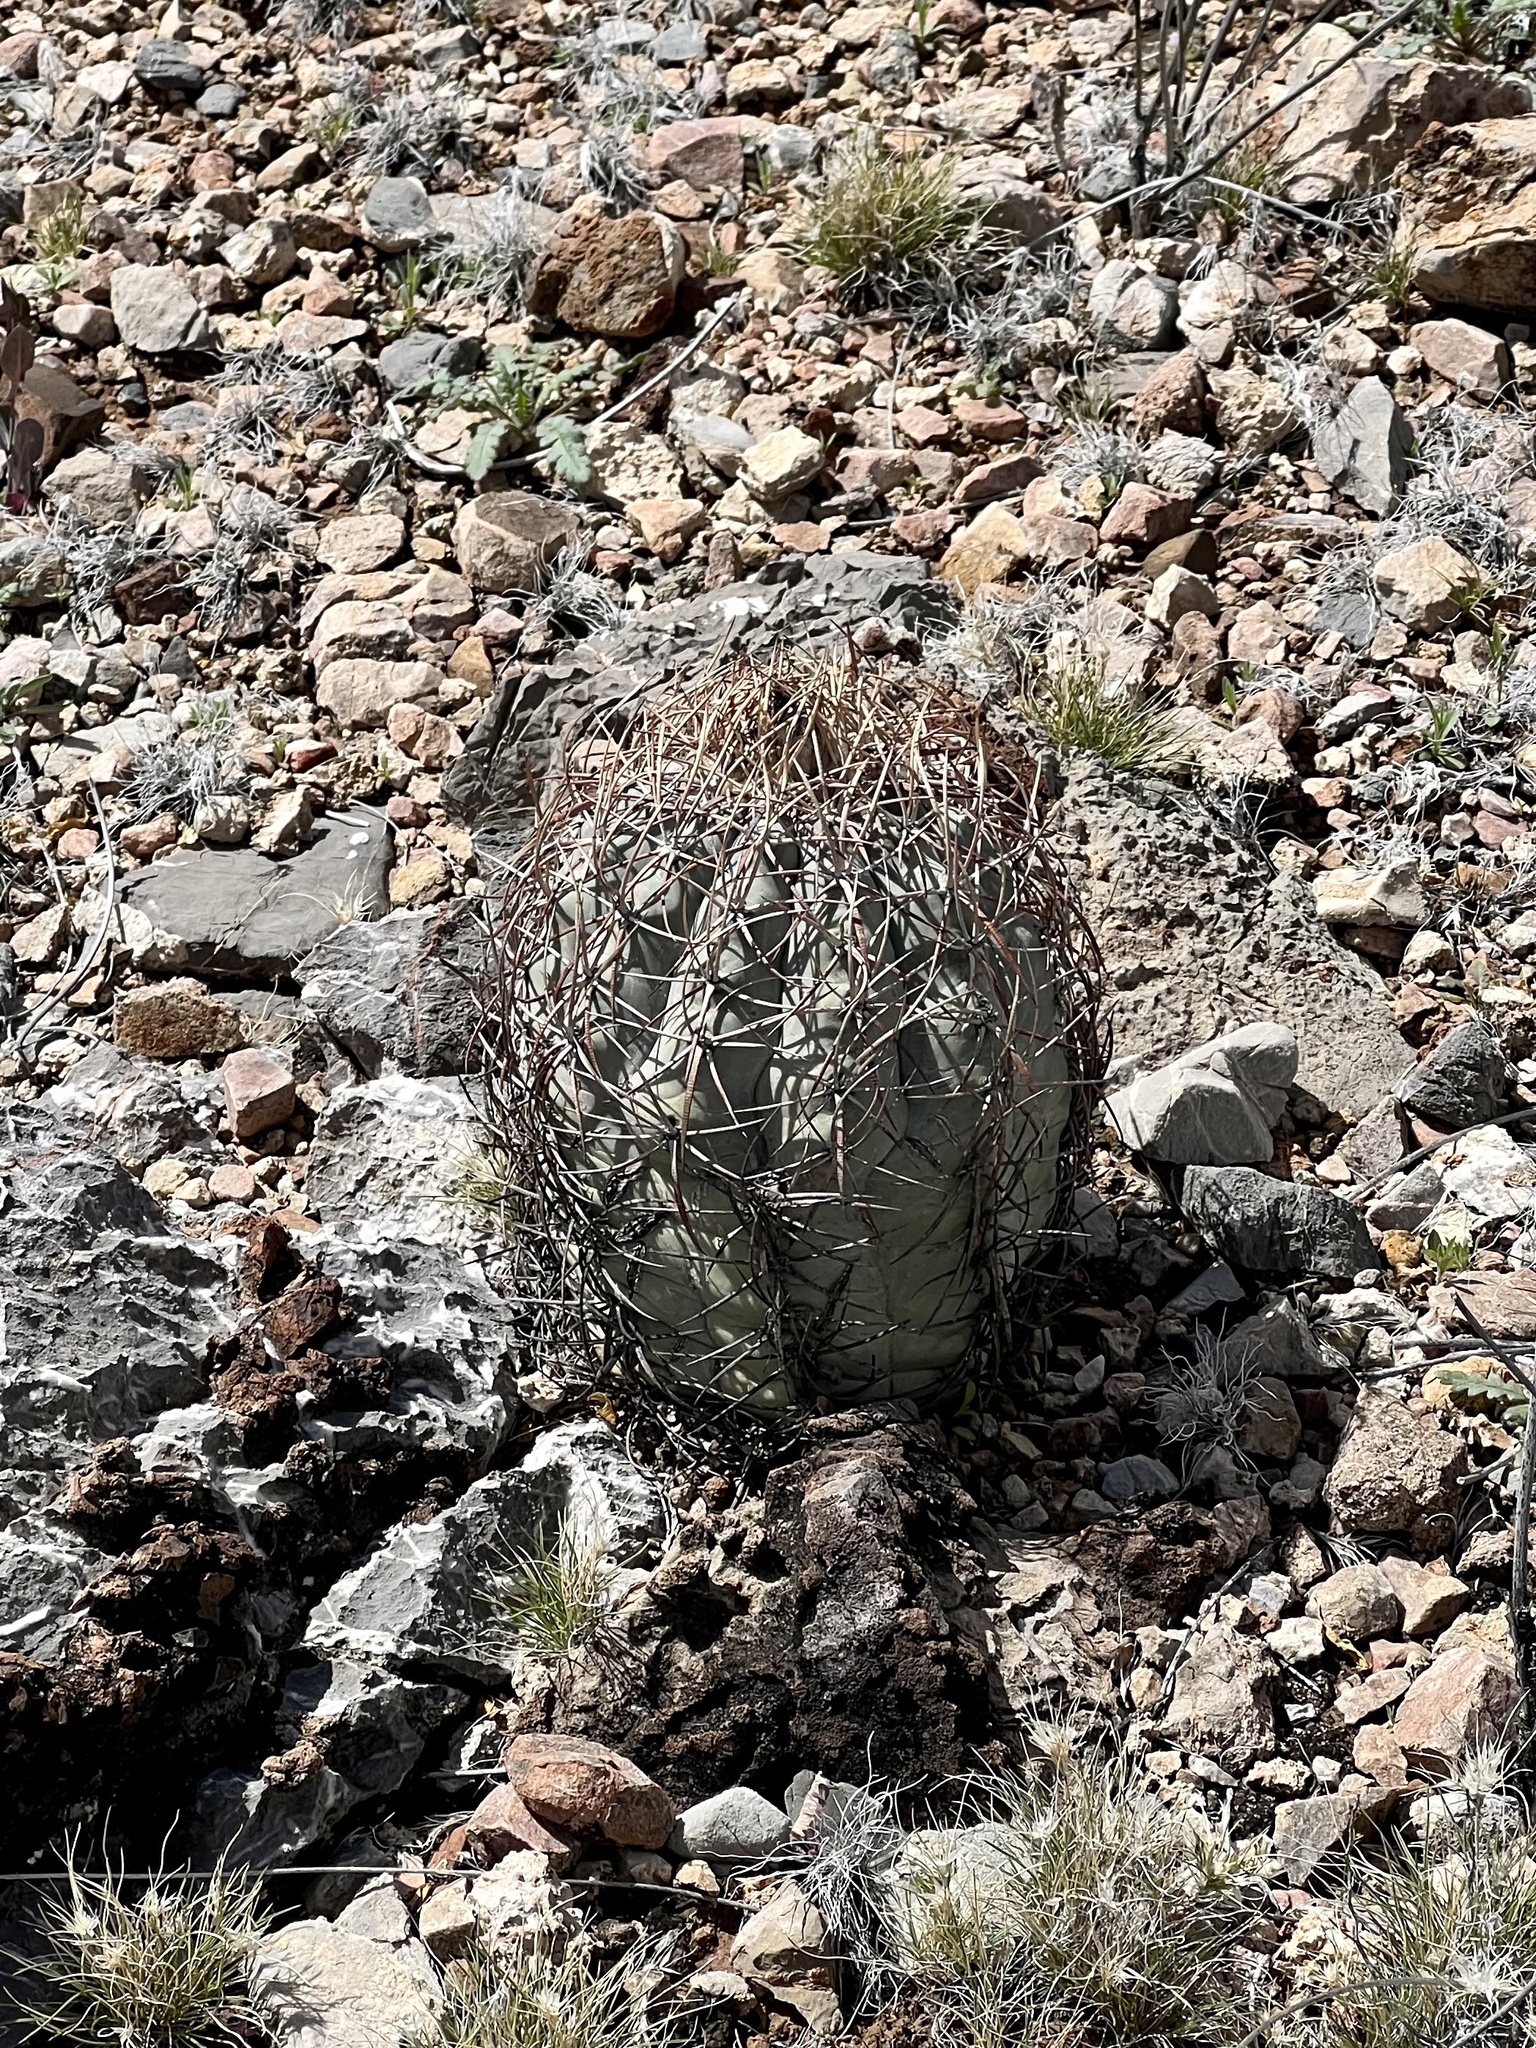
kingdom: Plantae
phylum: Tracheophyta
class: Magnoliopsida
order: Caryophyllales
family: Cactaceae
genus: Echinocactus
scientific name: Echinocactus horizonthalonius
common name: Devilshead
